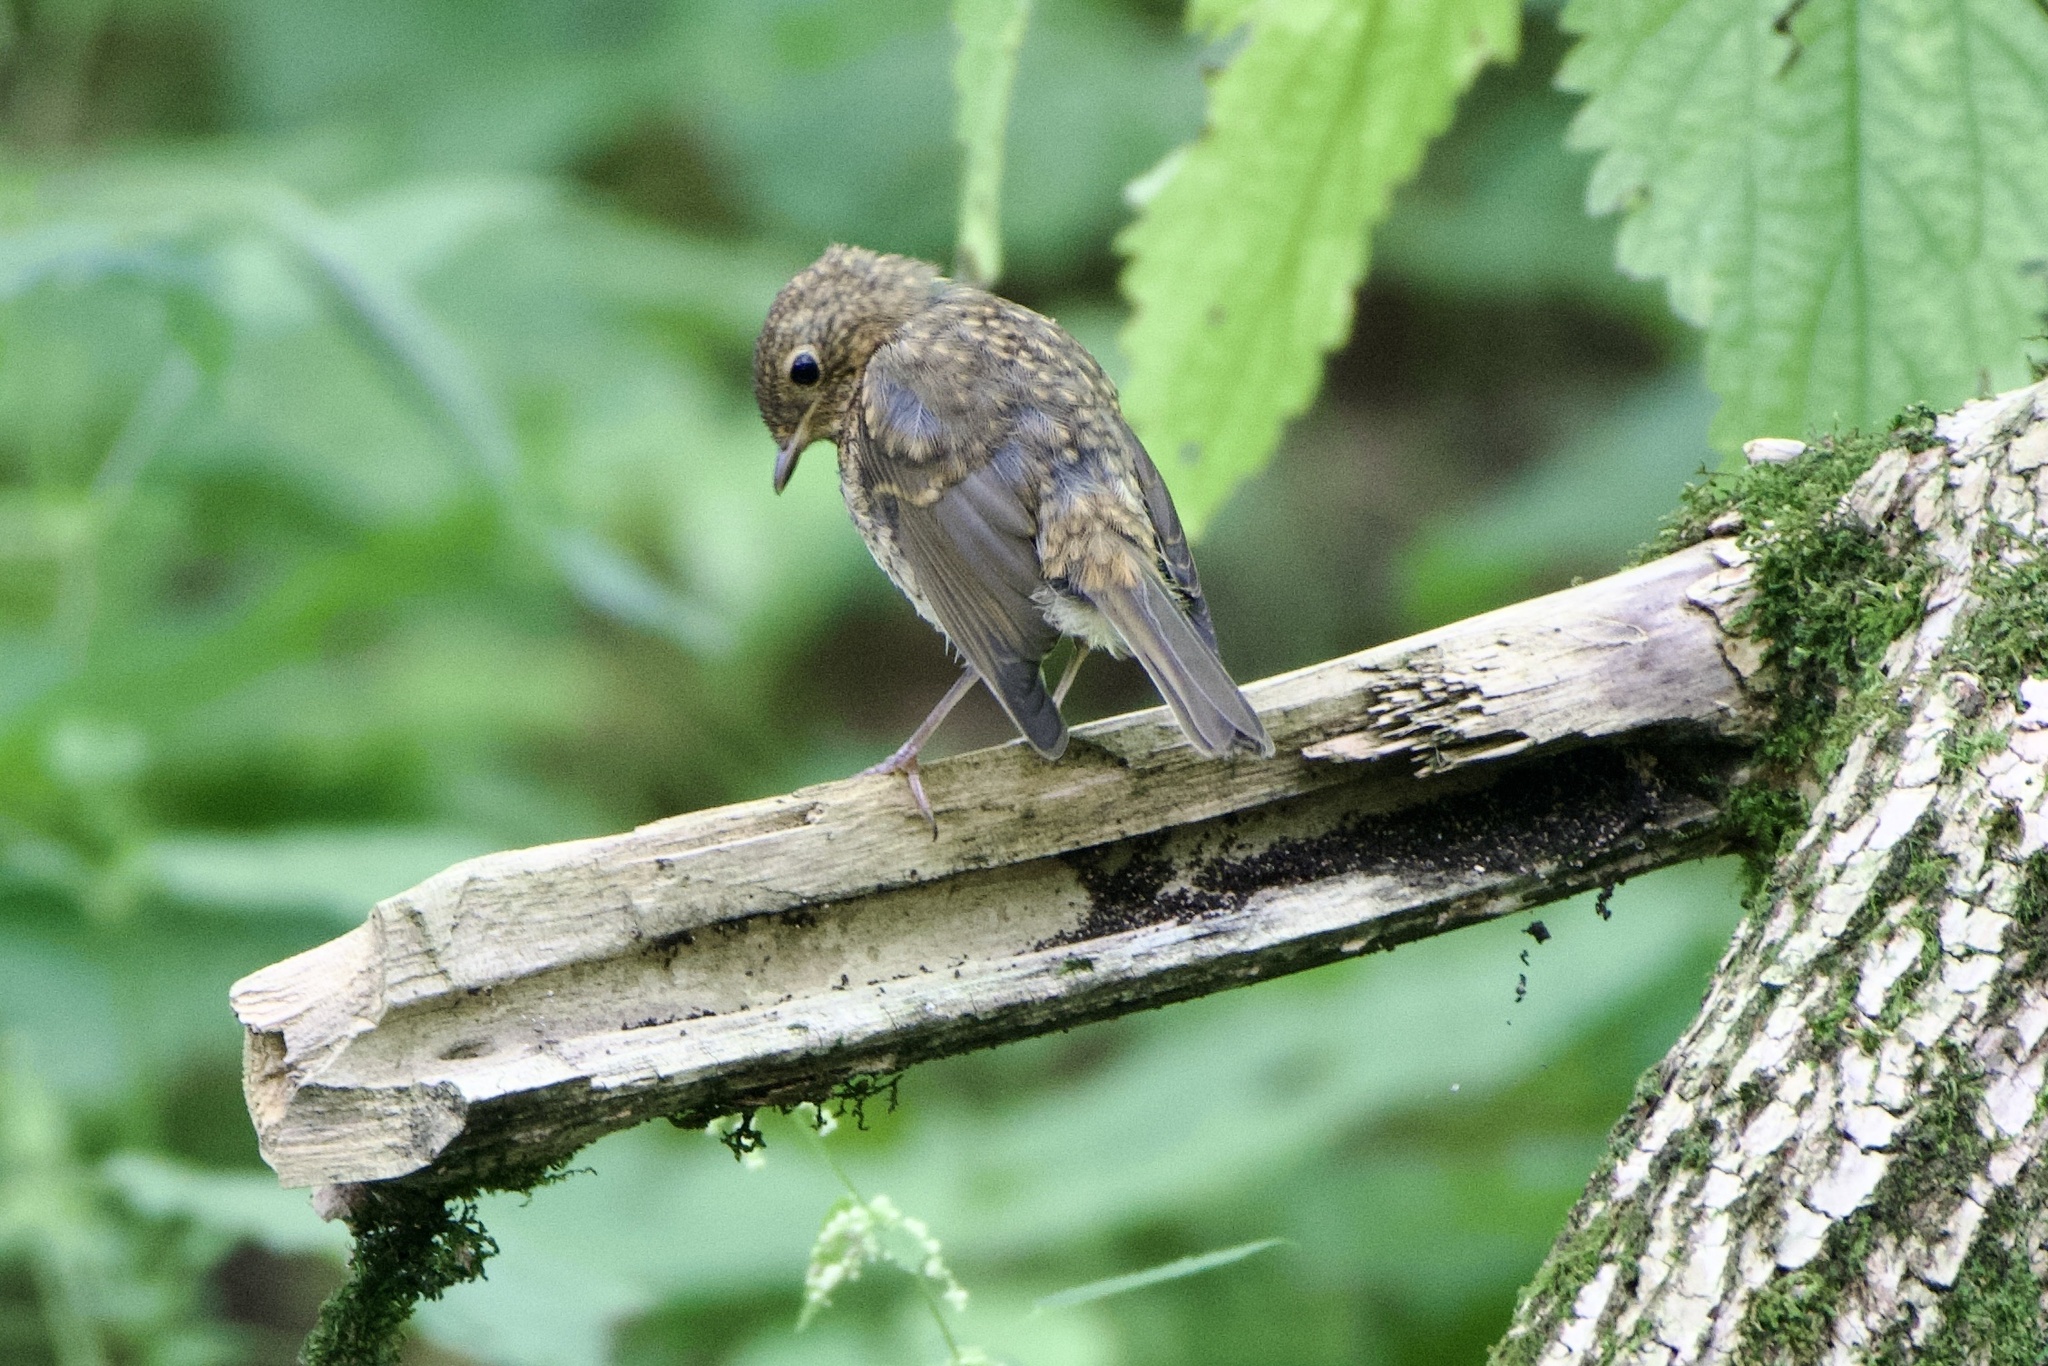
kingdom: Animalia
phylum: Chordata
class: Aves
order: Passeriformes
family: Muscicapidae
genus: Erithacus
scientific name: Erithacus rubecula
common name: European robin
